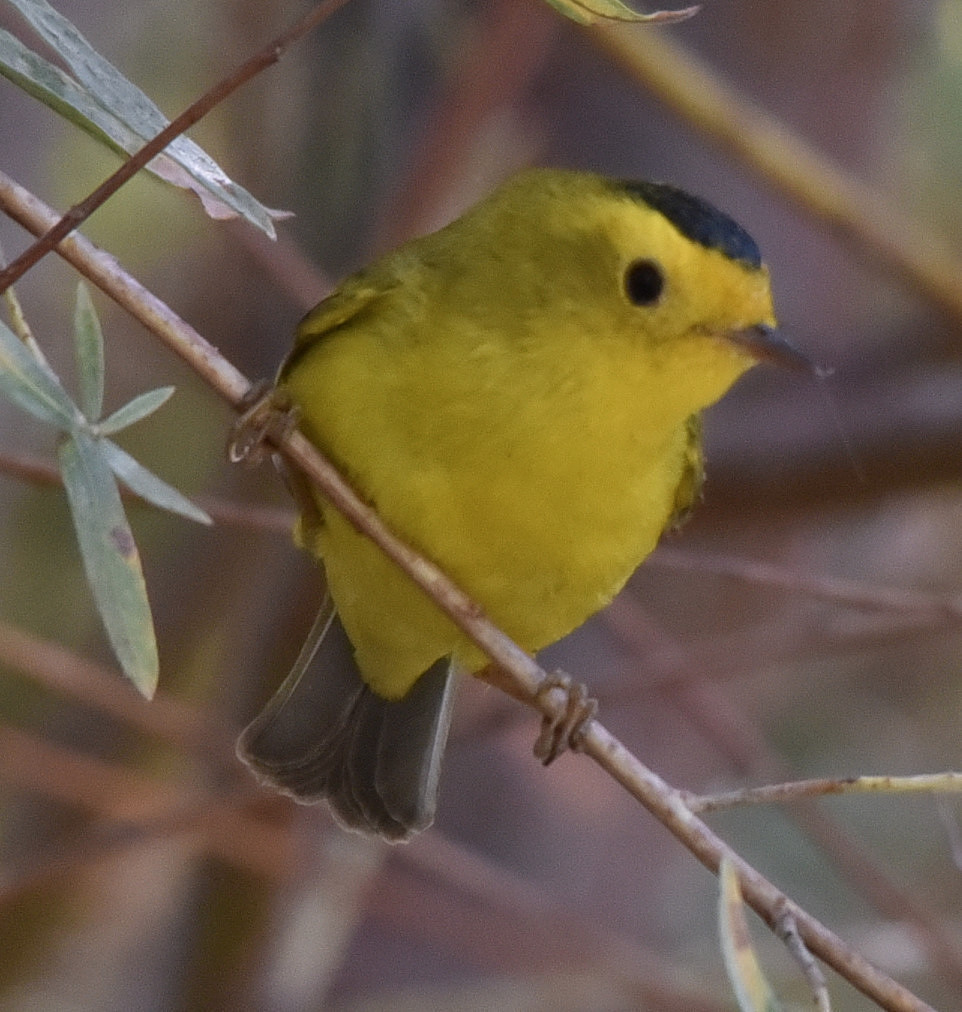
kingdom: Animalia
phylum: Chordata
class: Aves
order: Passeriformes
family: Parulidae
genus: Cardellina
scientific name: Cardellina pusilla
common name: Wilson's warbler
